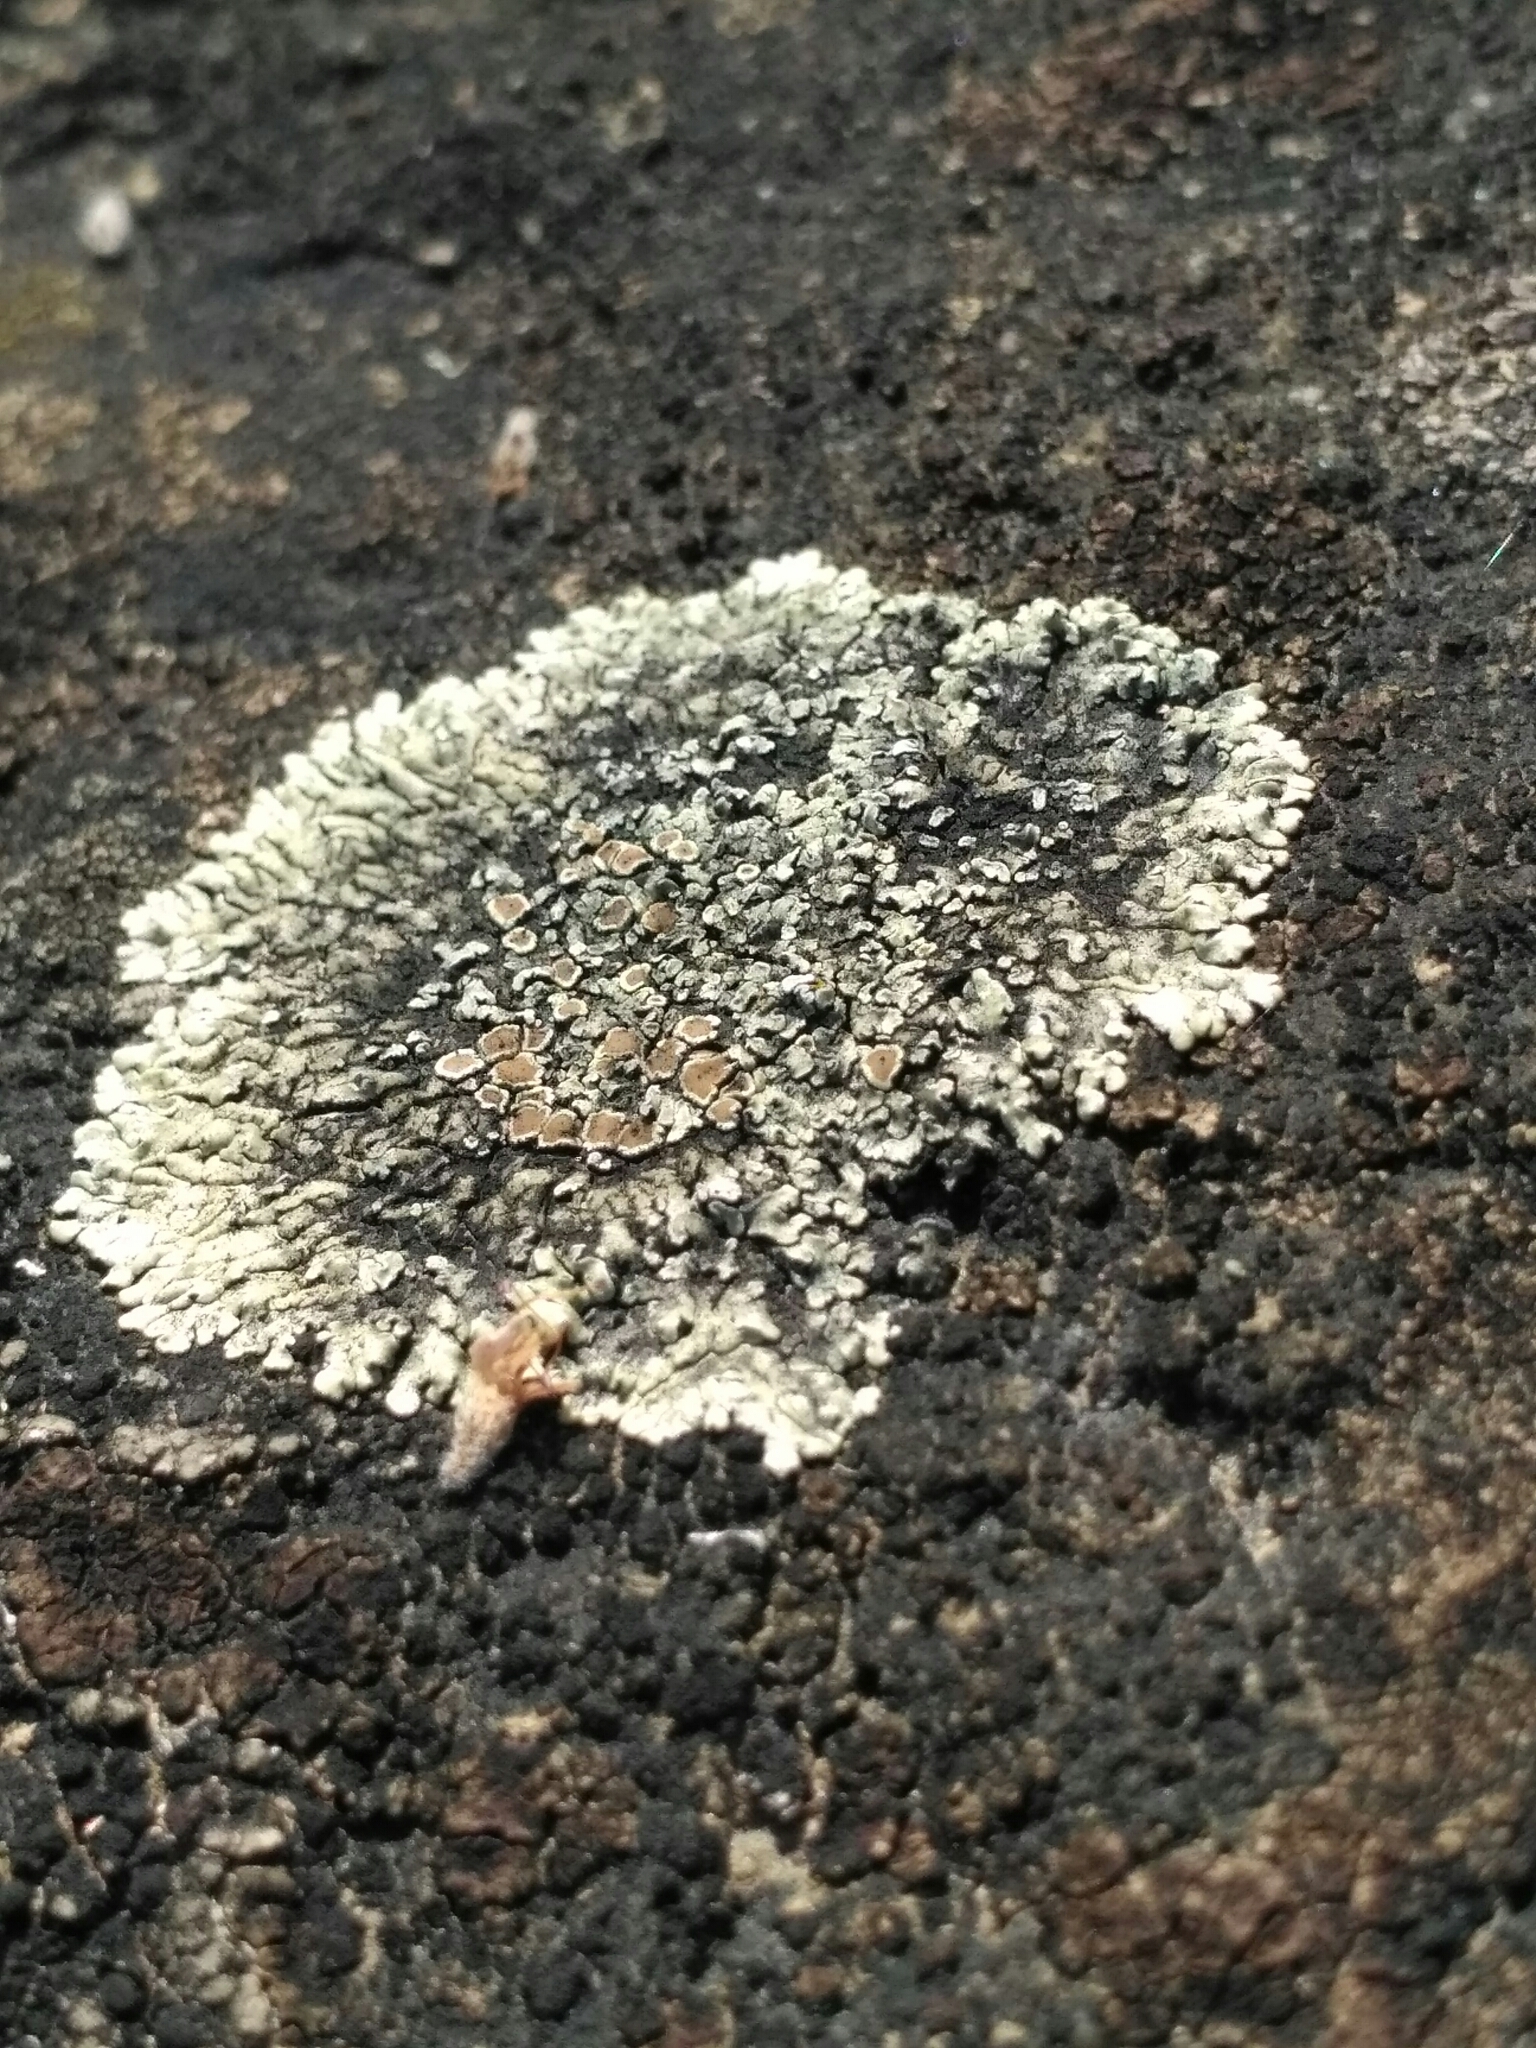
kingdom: Fungi
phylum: Ascomycota
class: Lecanoromycetes
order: Lecanorales
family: Lecanoraceae
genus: Protoparmeliopsis
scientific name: Protoparmeliopsis muralis
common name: Stonewall rim lichen
